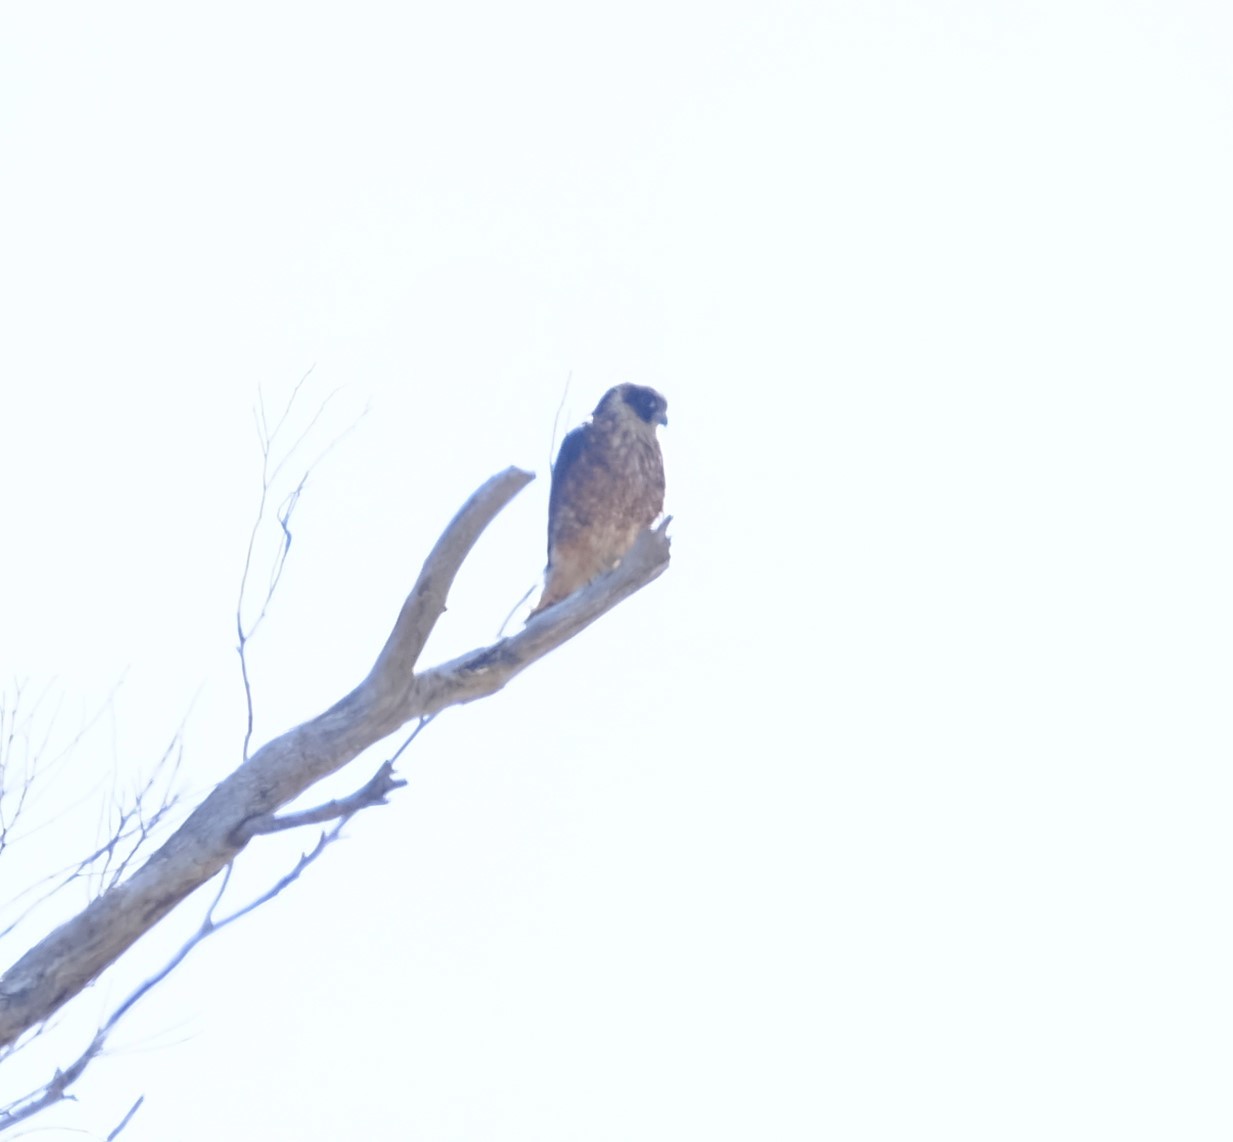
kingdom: Animalia
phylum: Chordata
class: Aves
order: Falconiformes
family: Falconidae
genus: Falco
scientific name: Falco longipennis
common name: Australian hobby
